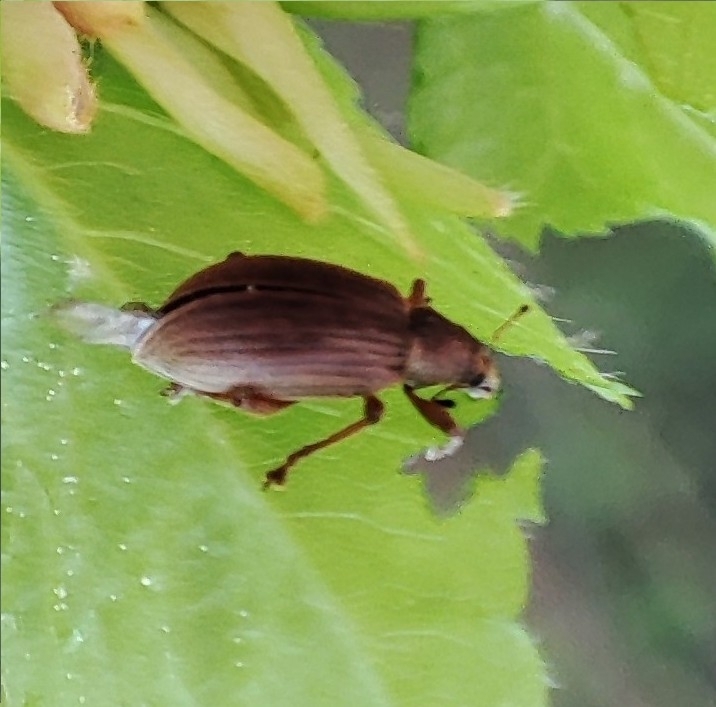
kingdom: Animalia
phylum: Arthropoda
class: Insecta
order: Coleoptera
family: Curculionidae
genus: Polydrusus
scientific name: Polydrusus mollis
